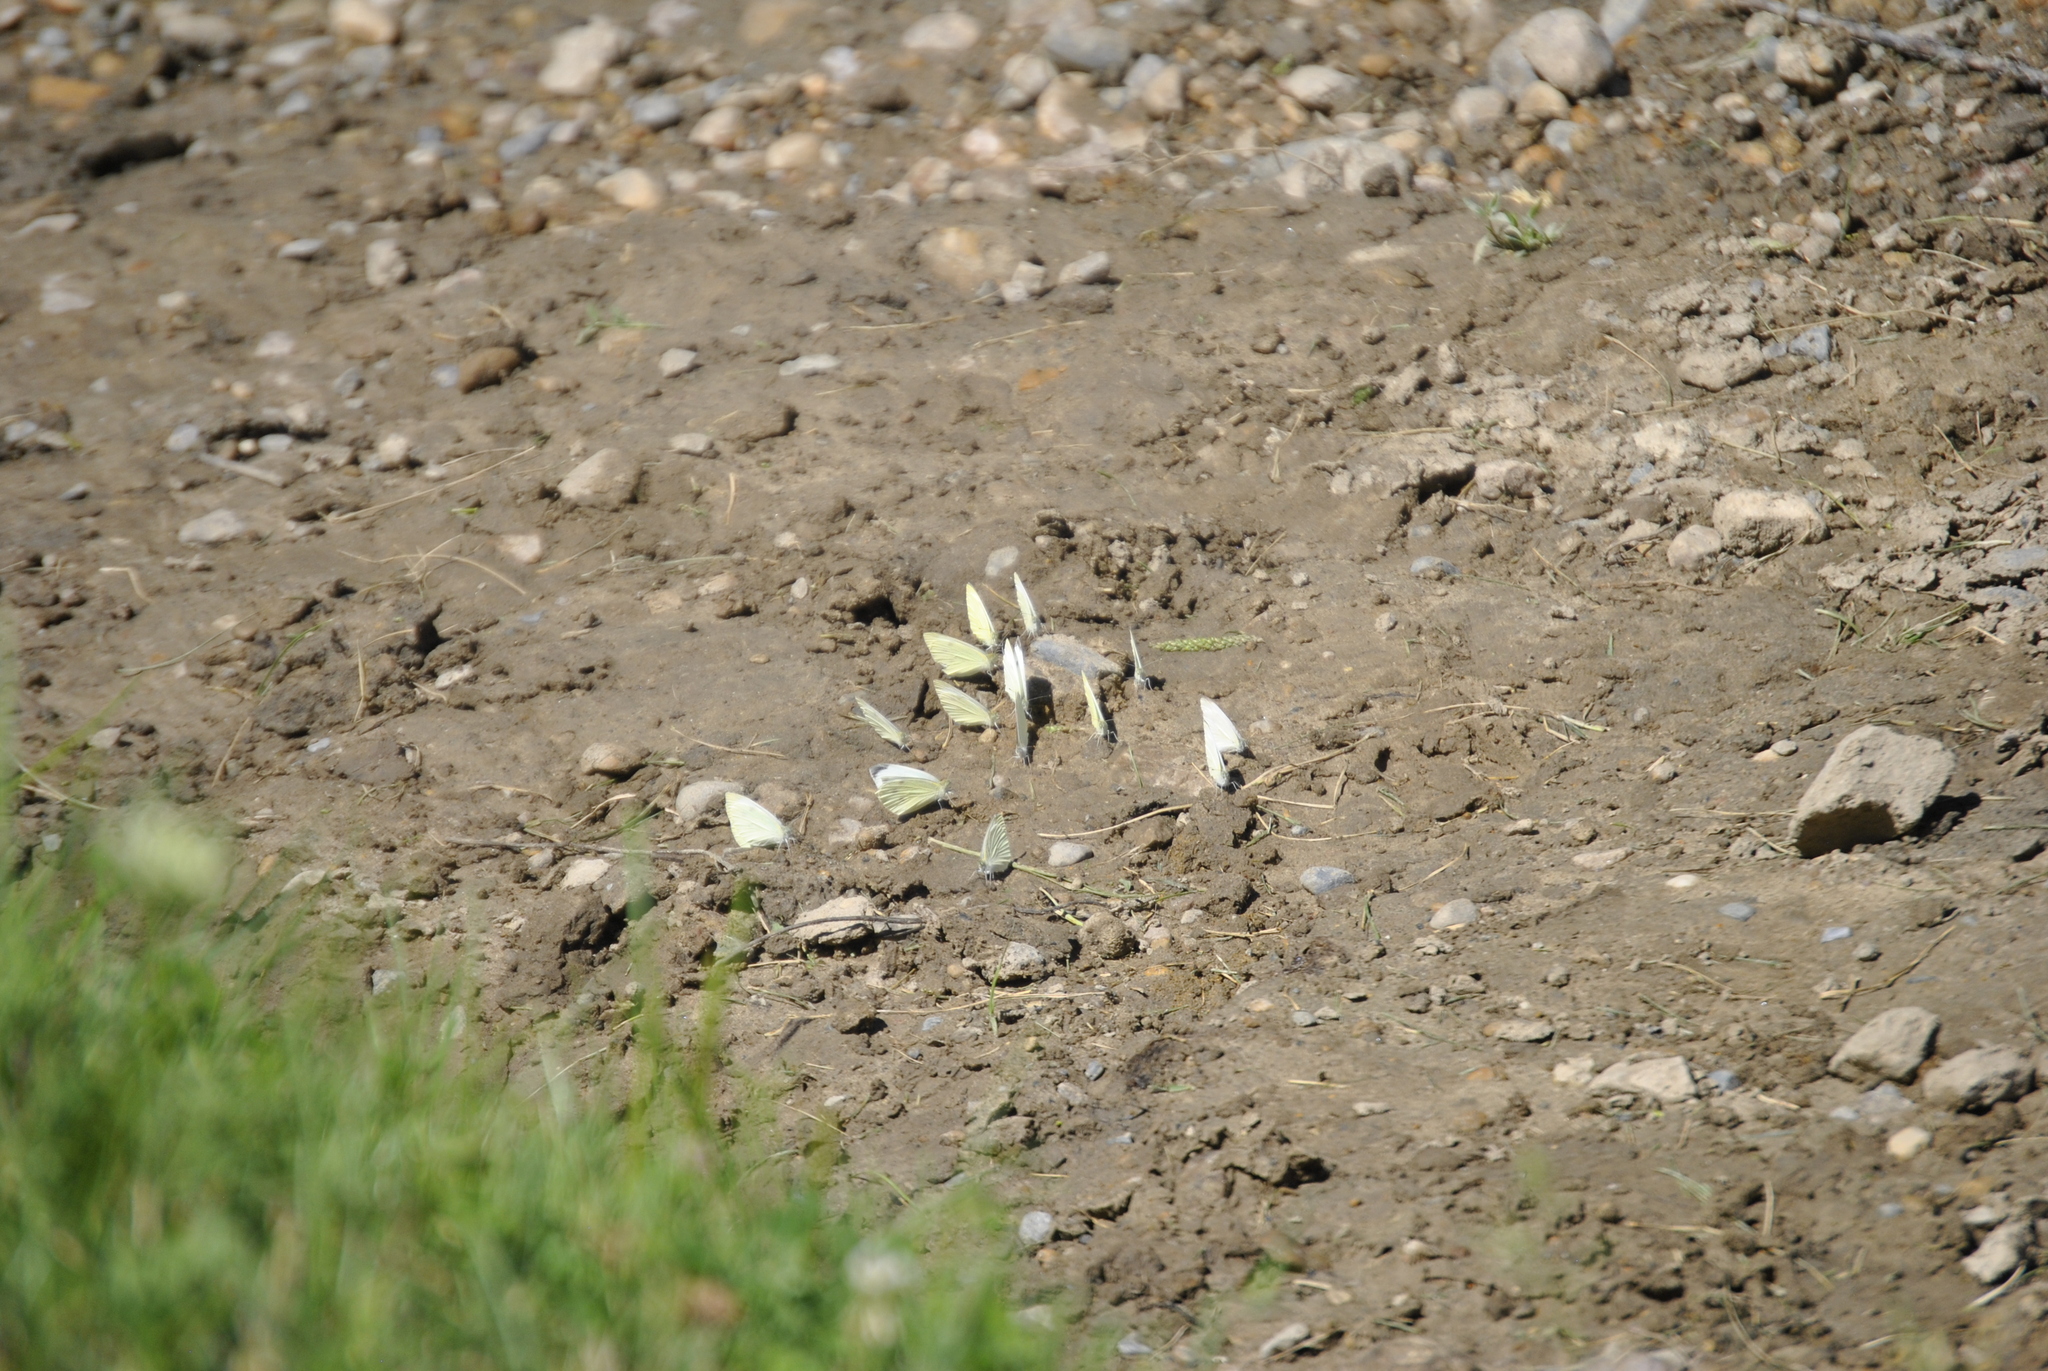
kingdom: Animalia
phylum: Arthropoda
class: Insecta
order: Lepidoptera
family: Pieridae
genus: Pieris
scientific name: Pieris rapae
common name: Small white
